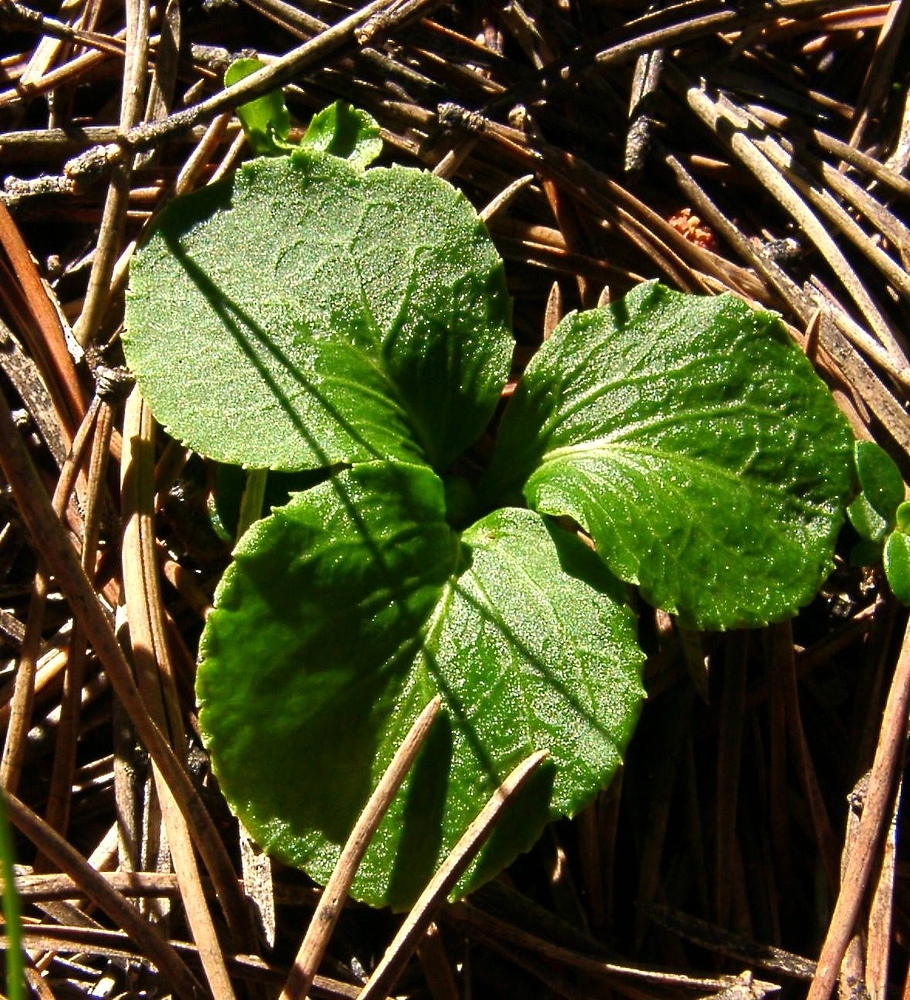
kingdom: Plantae
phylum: Tracheophyta
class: Magnoliopsida
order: Ericales
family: Ericaceae
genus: Moneses
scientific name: Moneses uniflora
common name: One-flowered wintergreen
